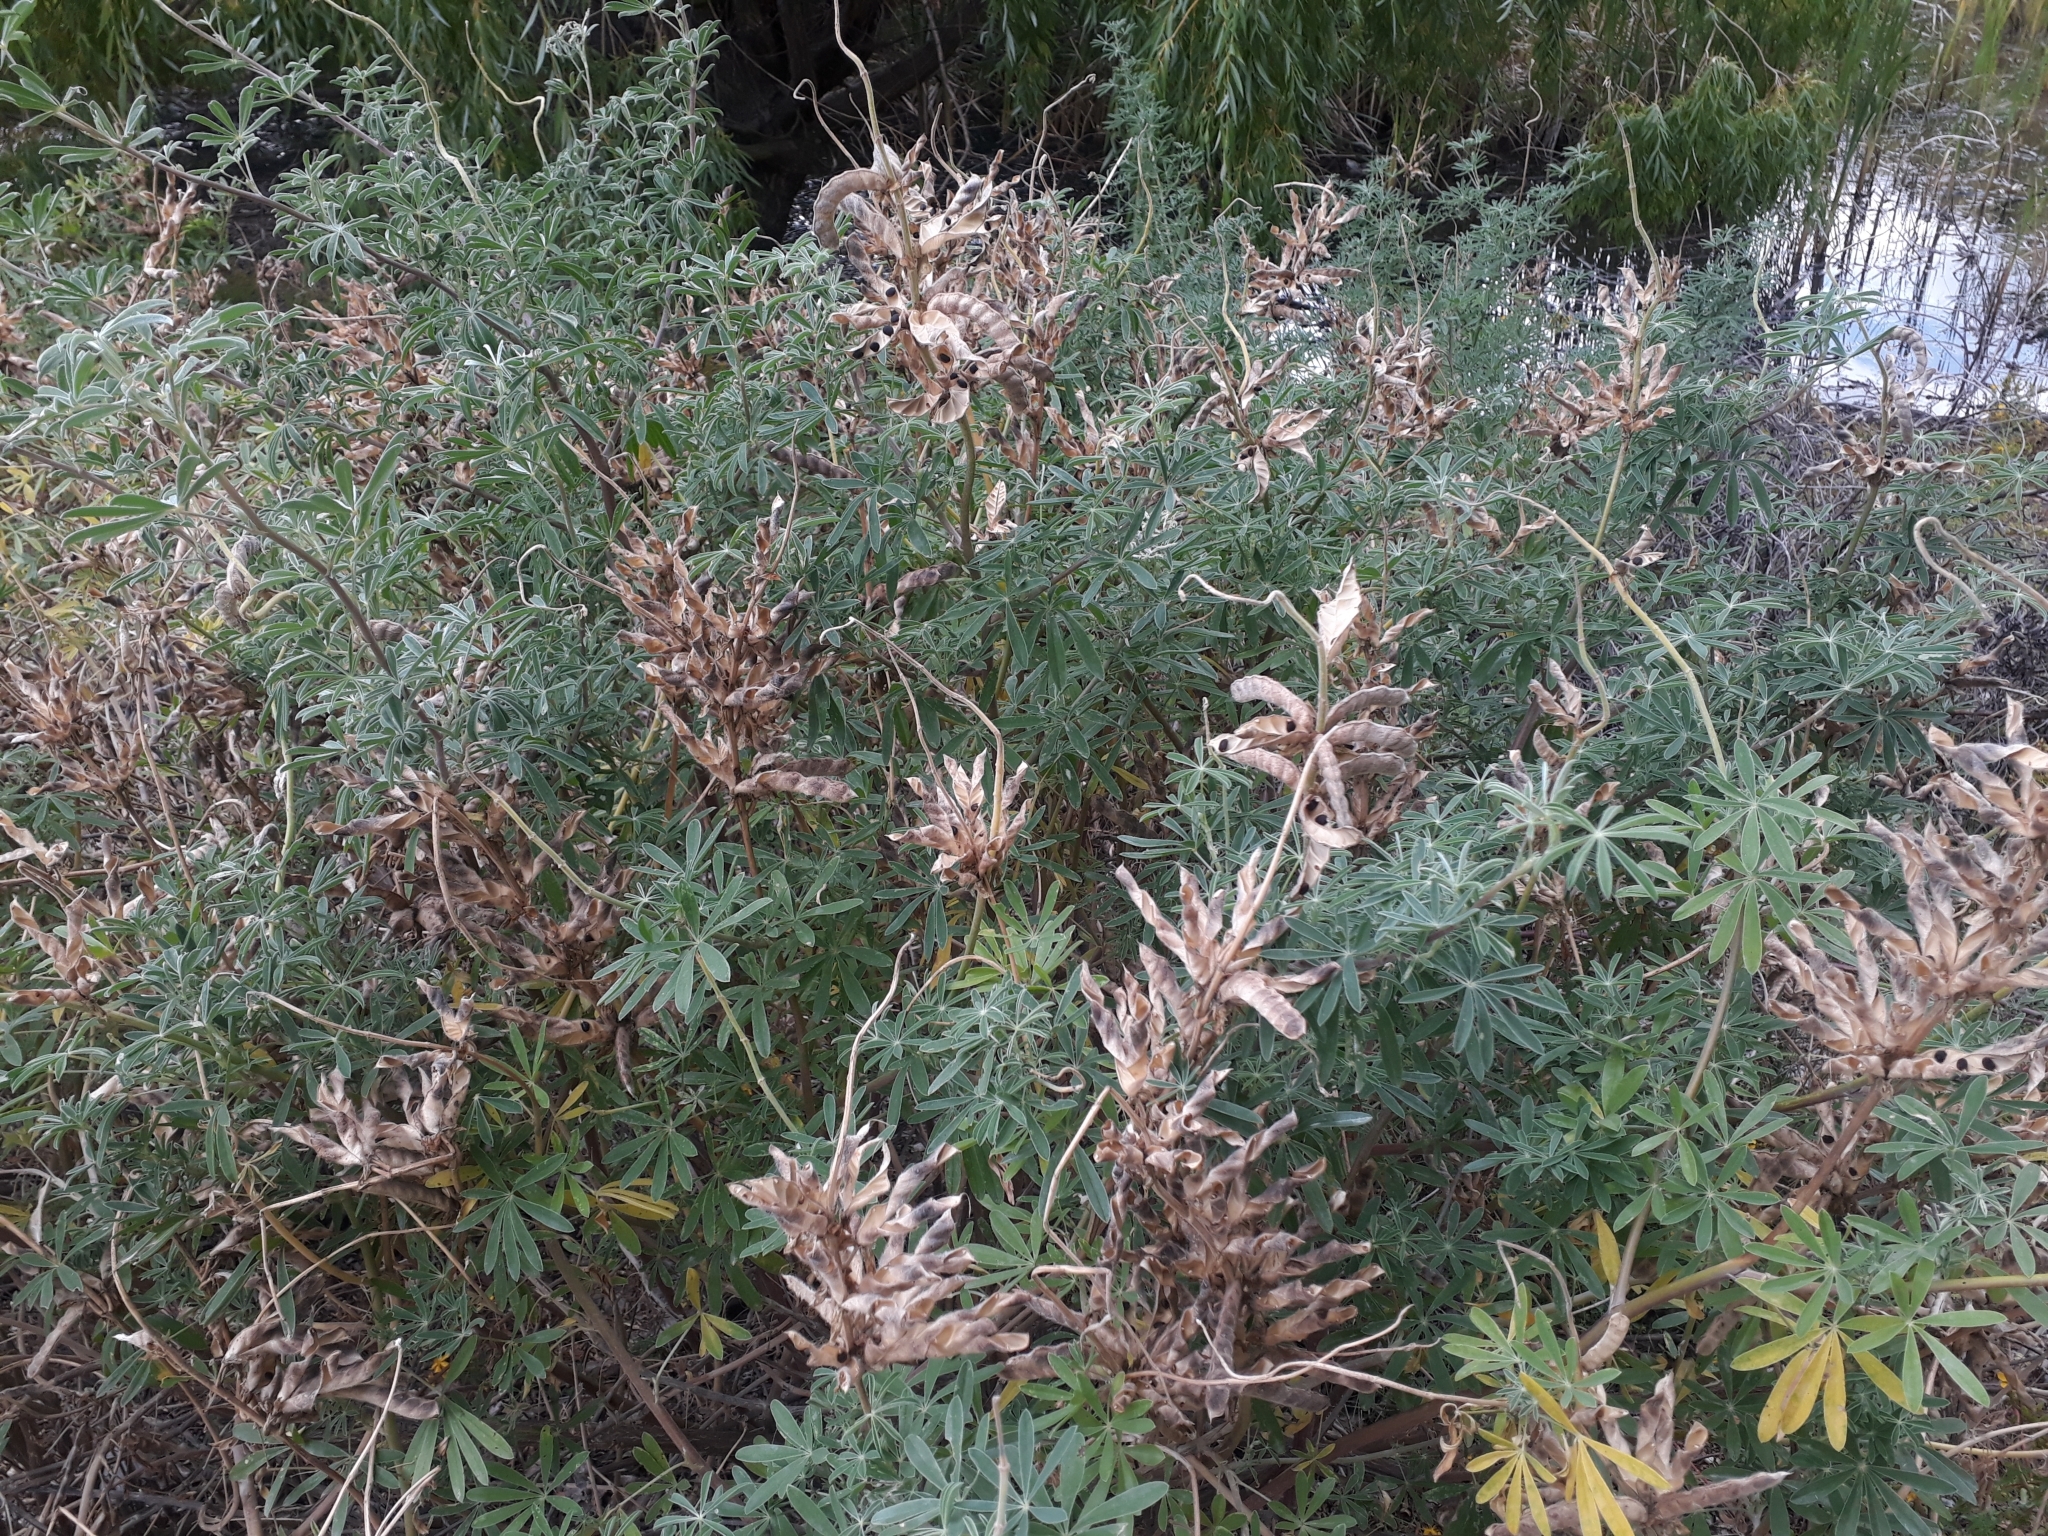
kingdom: Plantae
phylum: Tracheophyta
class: Magnoliopsida
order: Fabales
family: Fabaceae
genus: Lupinus
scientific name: Lupinus arboreus
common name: Yellow bush lupine
